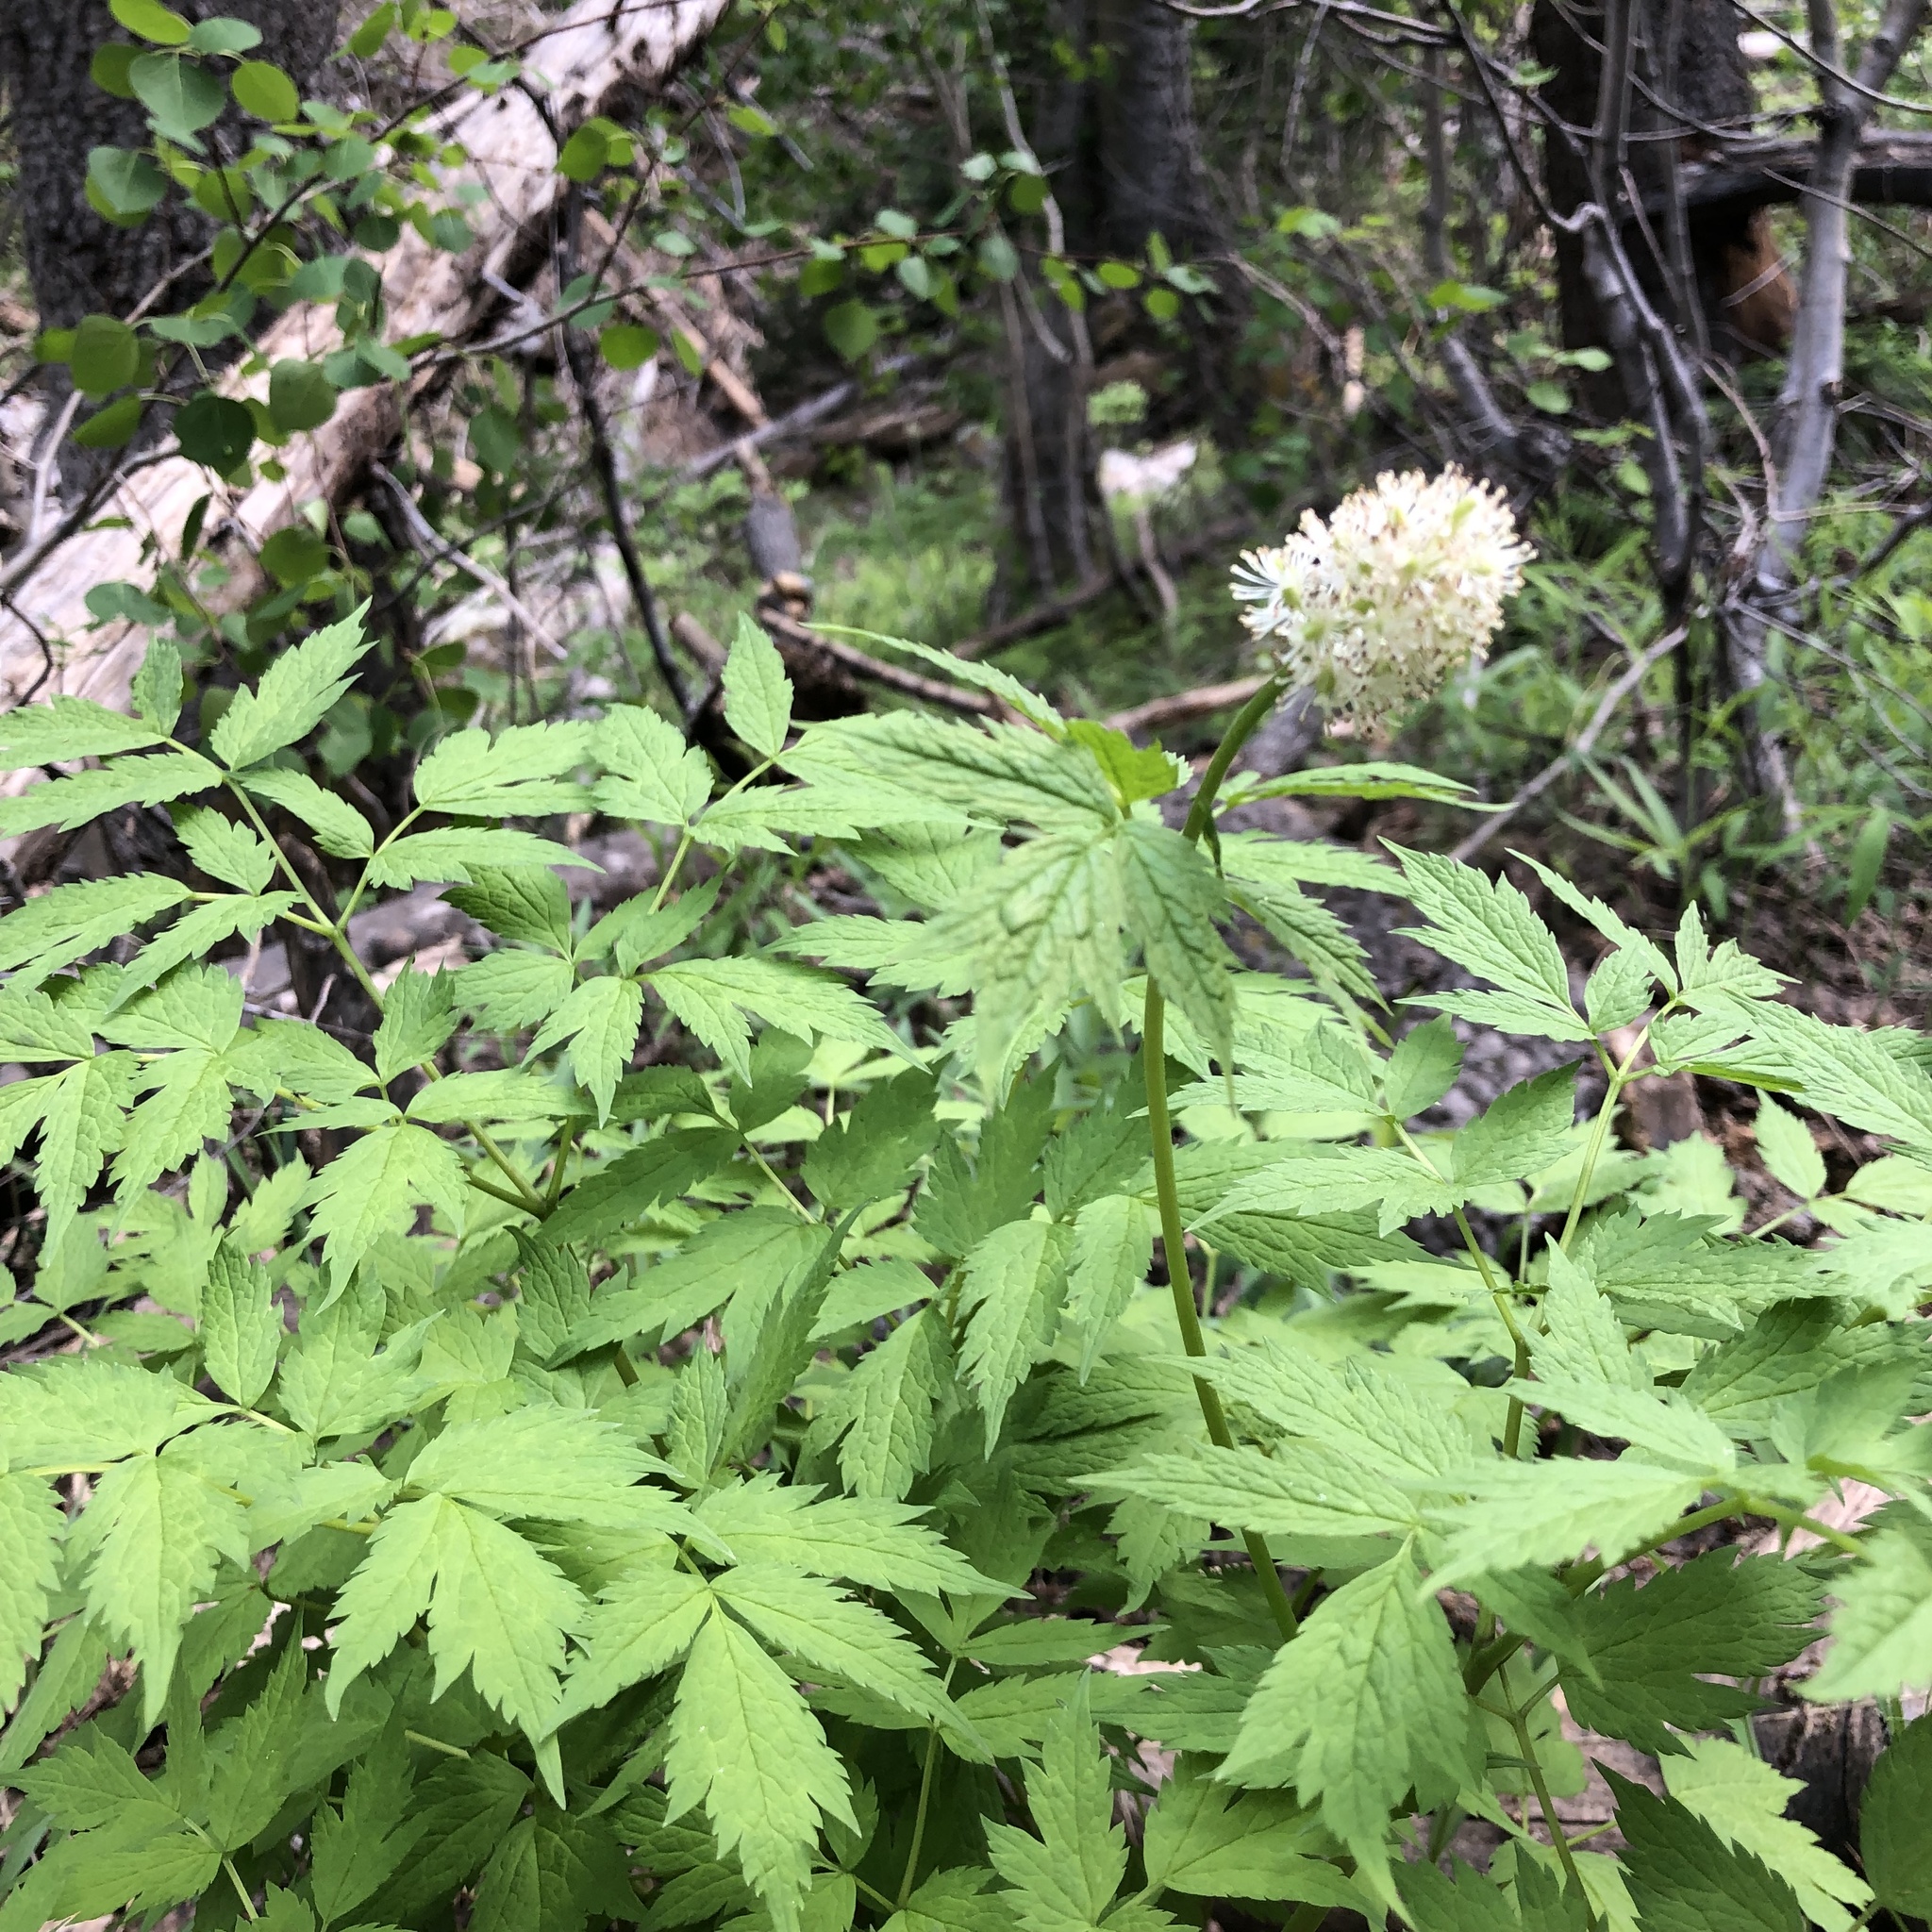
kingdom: Plantae
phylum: Tracheophyta
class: Magnoliopsida
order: Ranunculales
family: Ranunculaceae
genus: Actaea
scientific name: Actaea rubra
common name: Red baneberry
